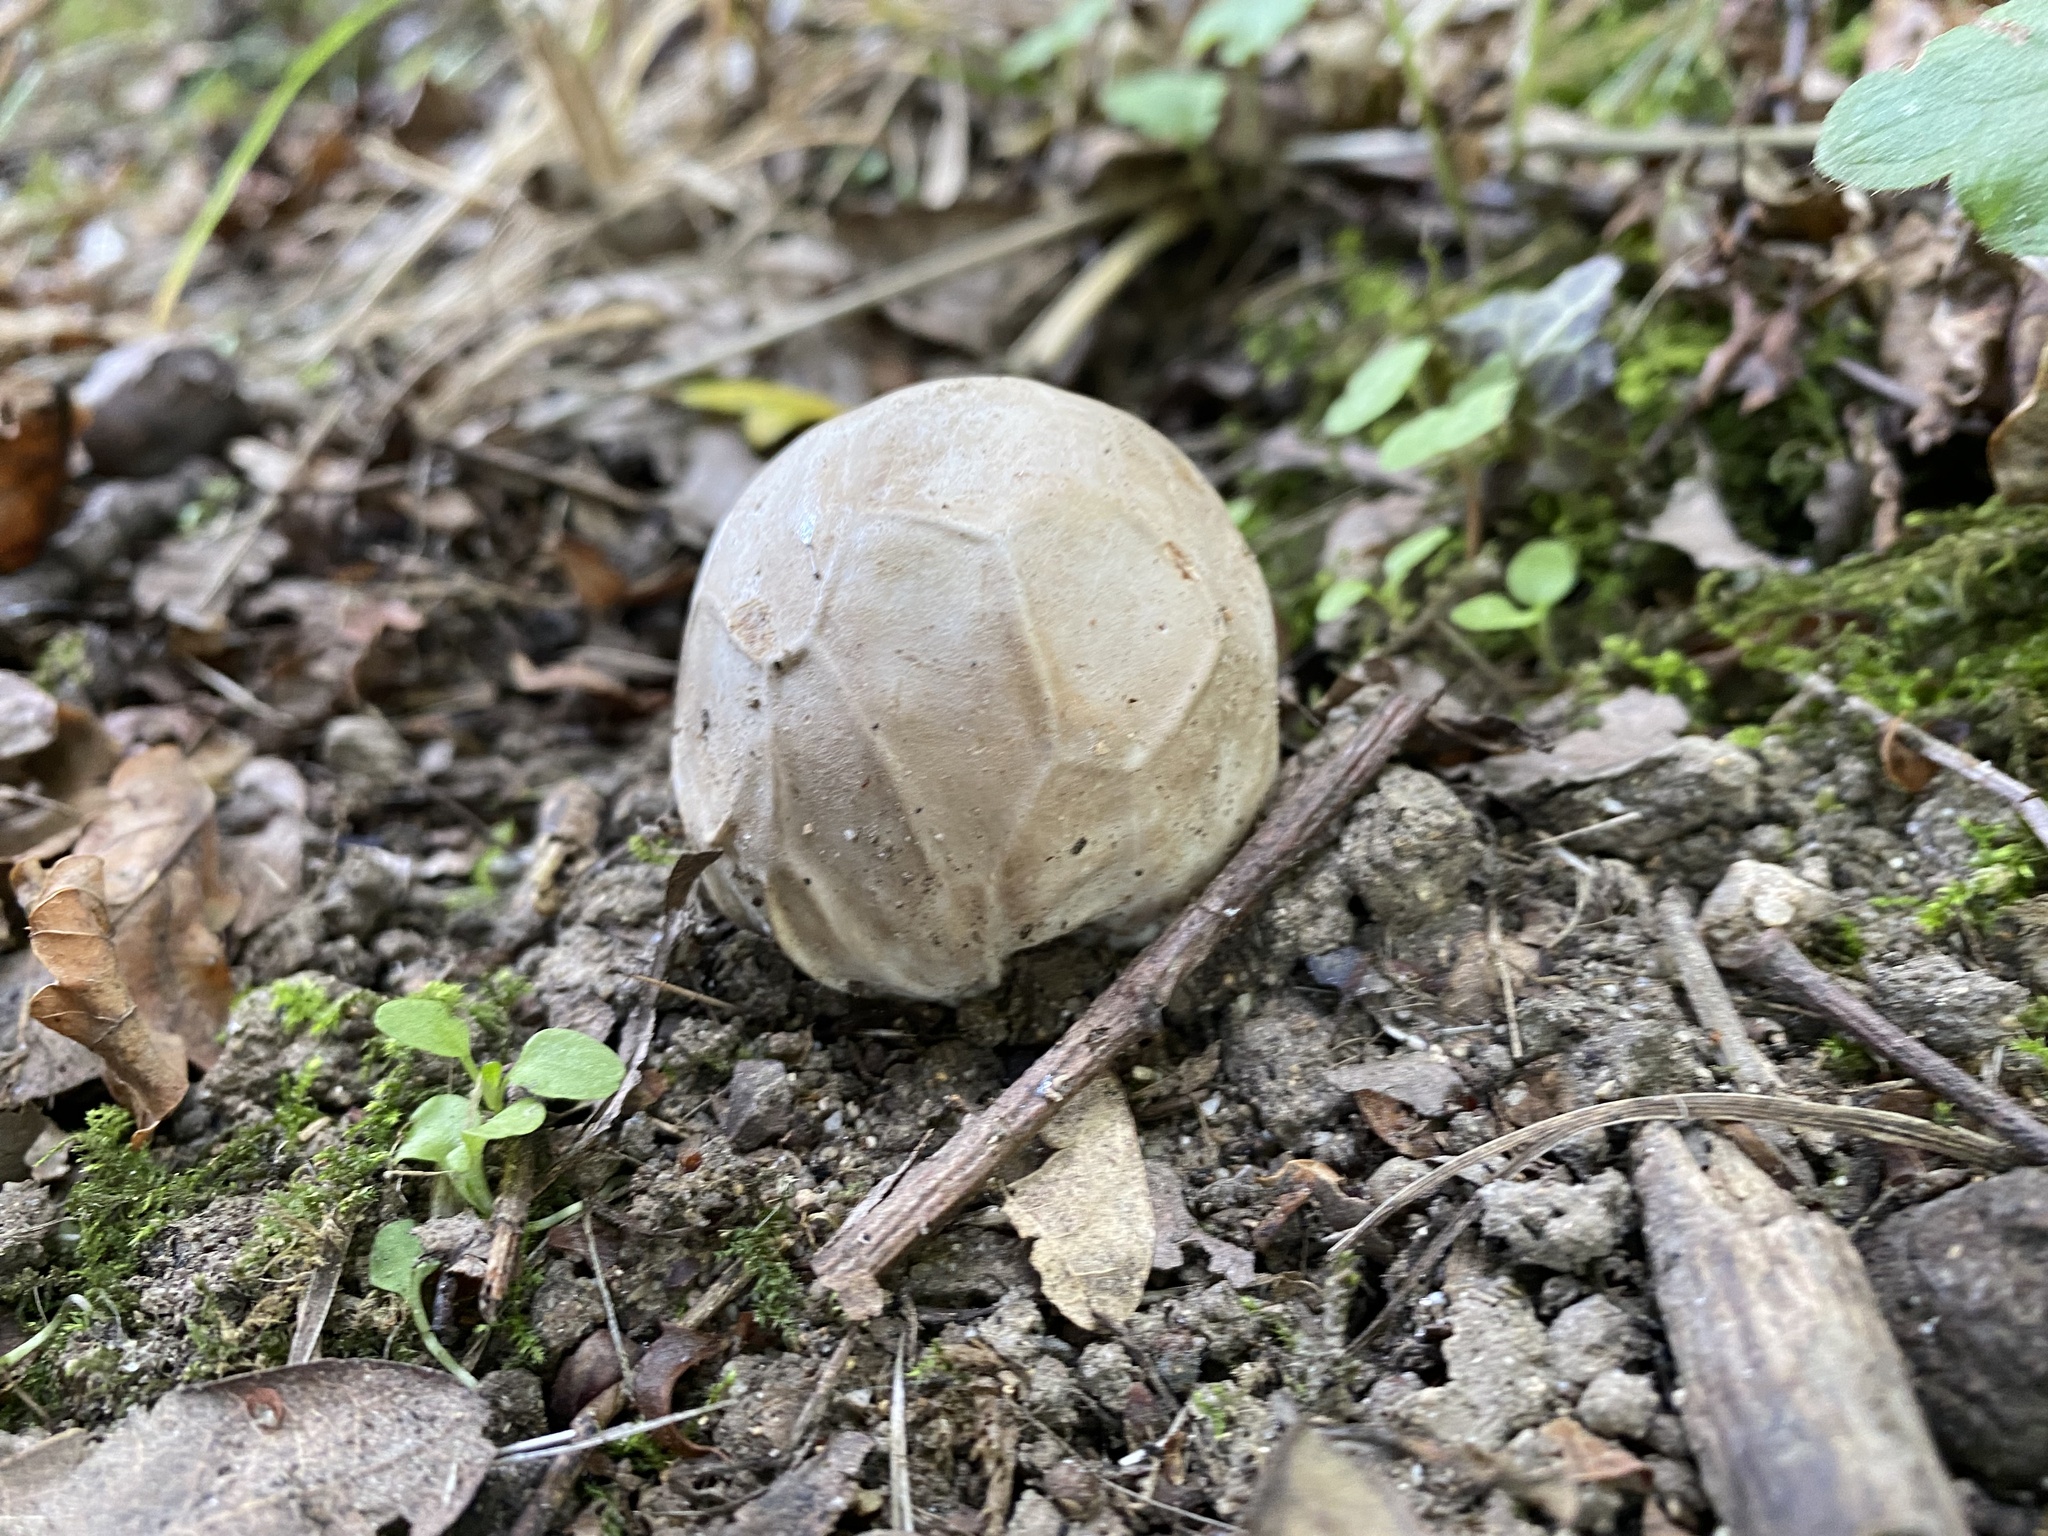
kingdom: Fungi
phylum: Basidiomycota
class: Agaricomycetes
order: Phallales
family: Phallaceae
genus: Clathrus
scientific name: Clathrus ruber
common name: Red cage
